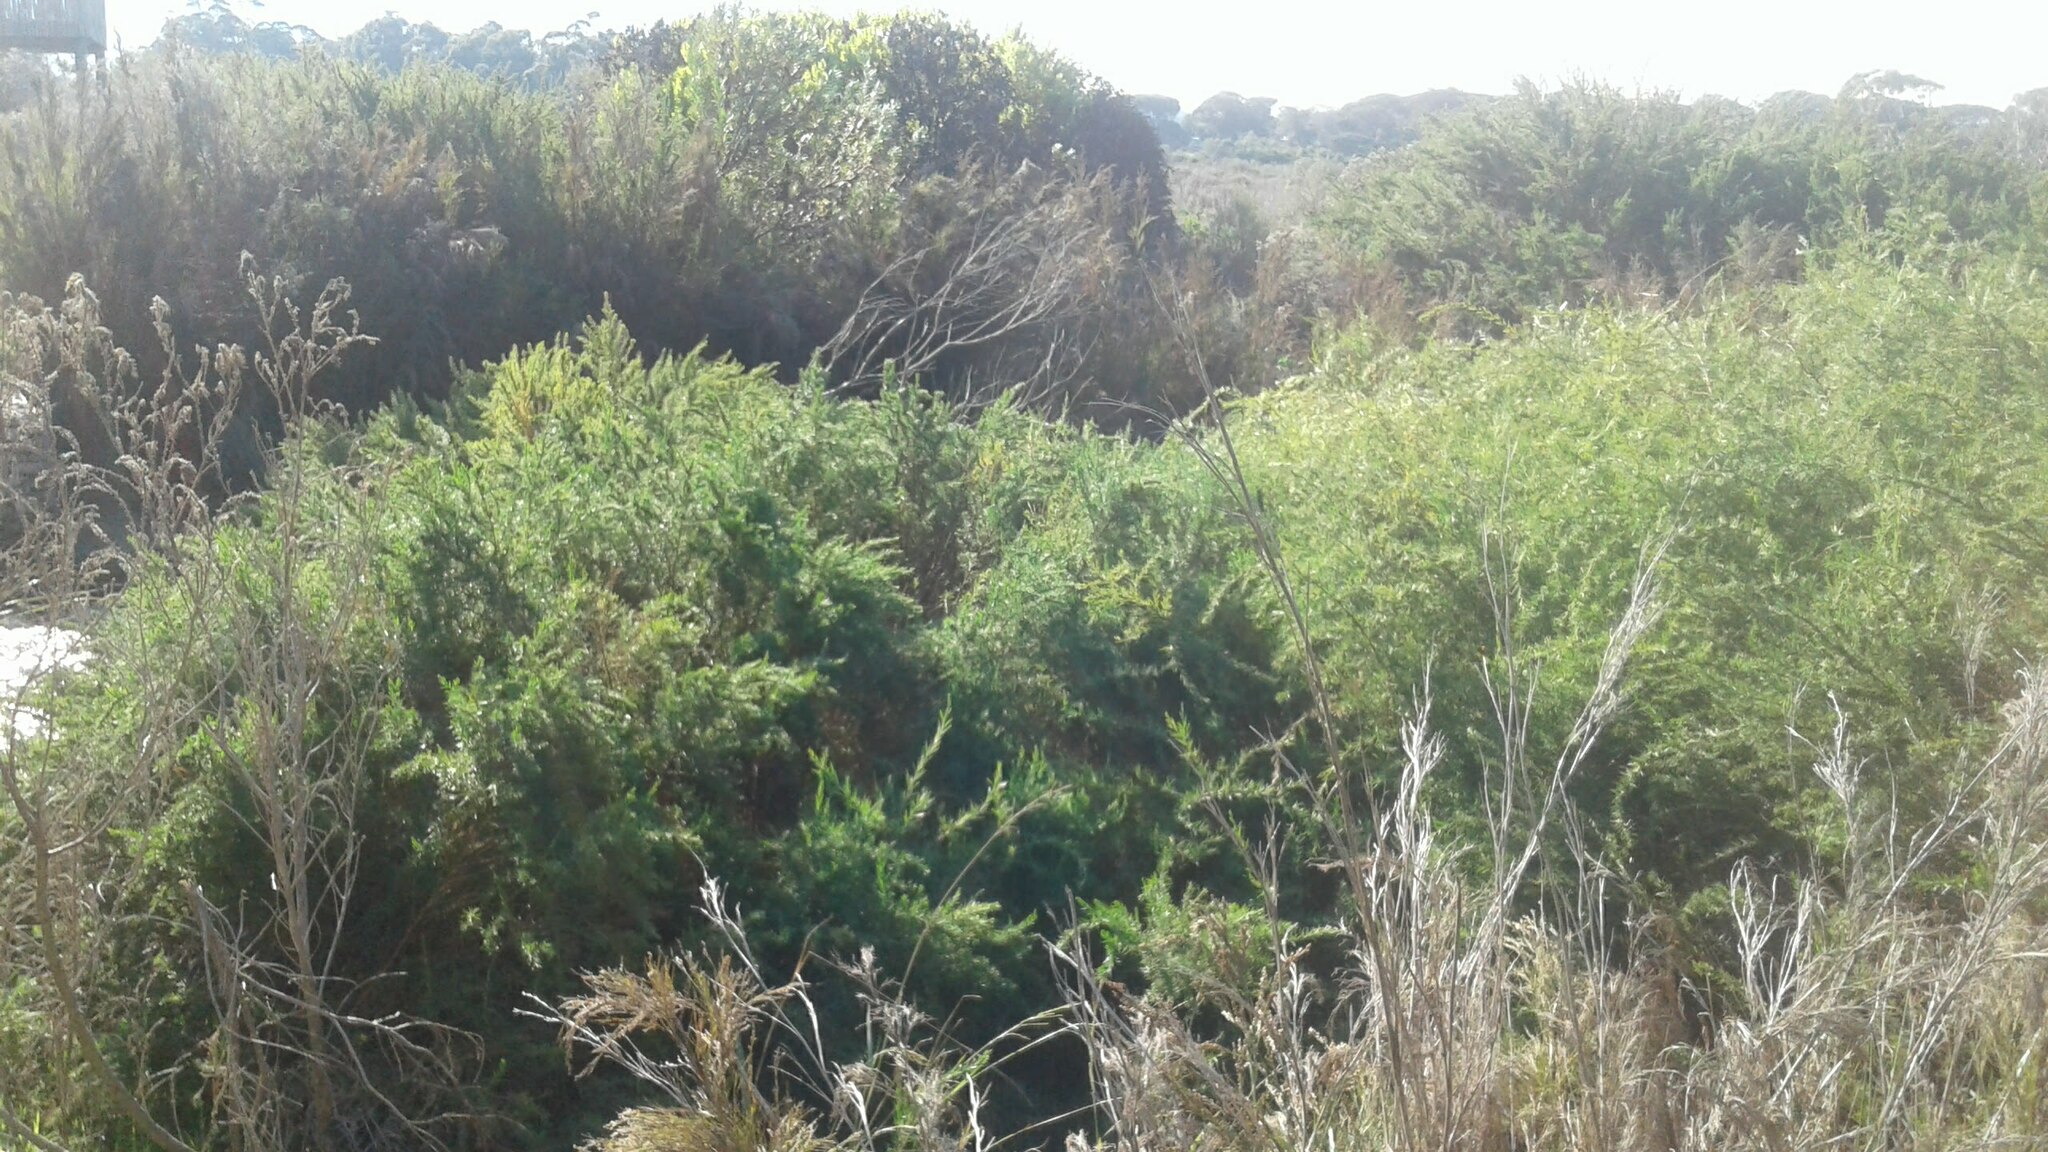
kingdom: Plantae
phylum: Tracheophyta
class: Liliopsida
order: Poales
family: Restionaceae
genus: Restio
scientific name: Restio paniculatus
